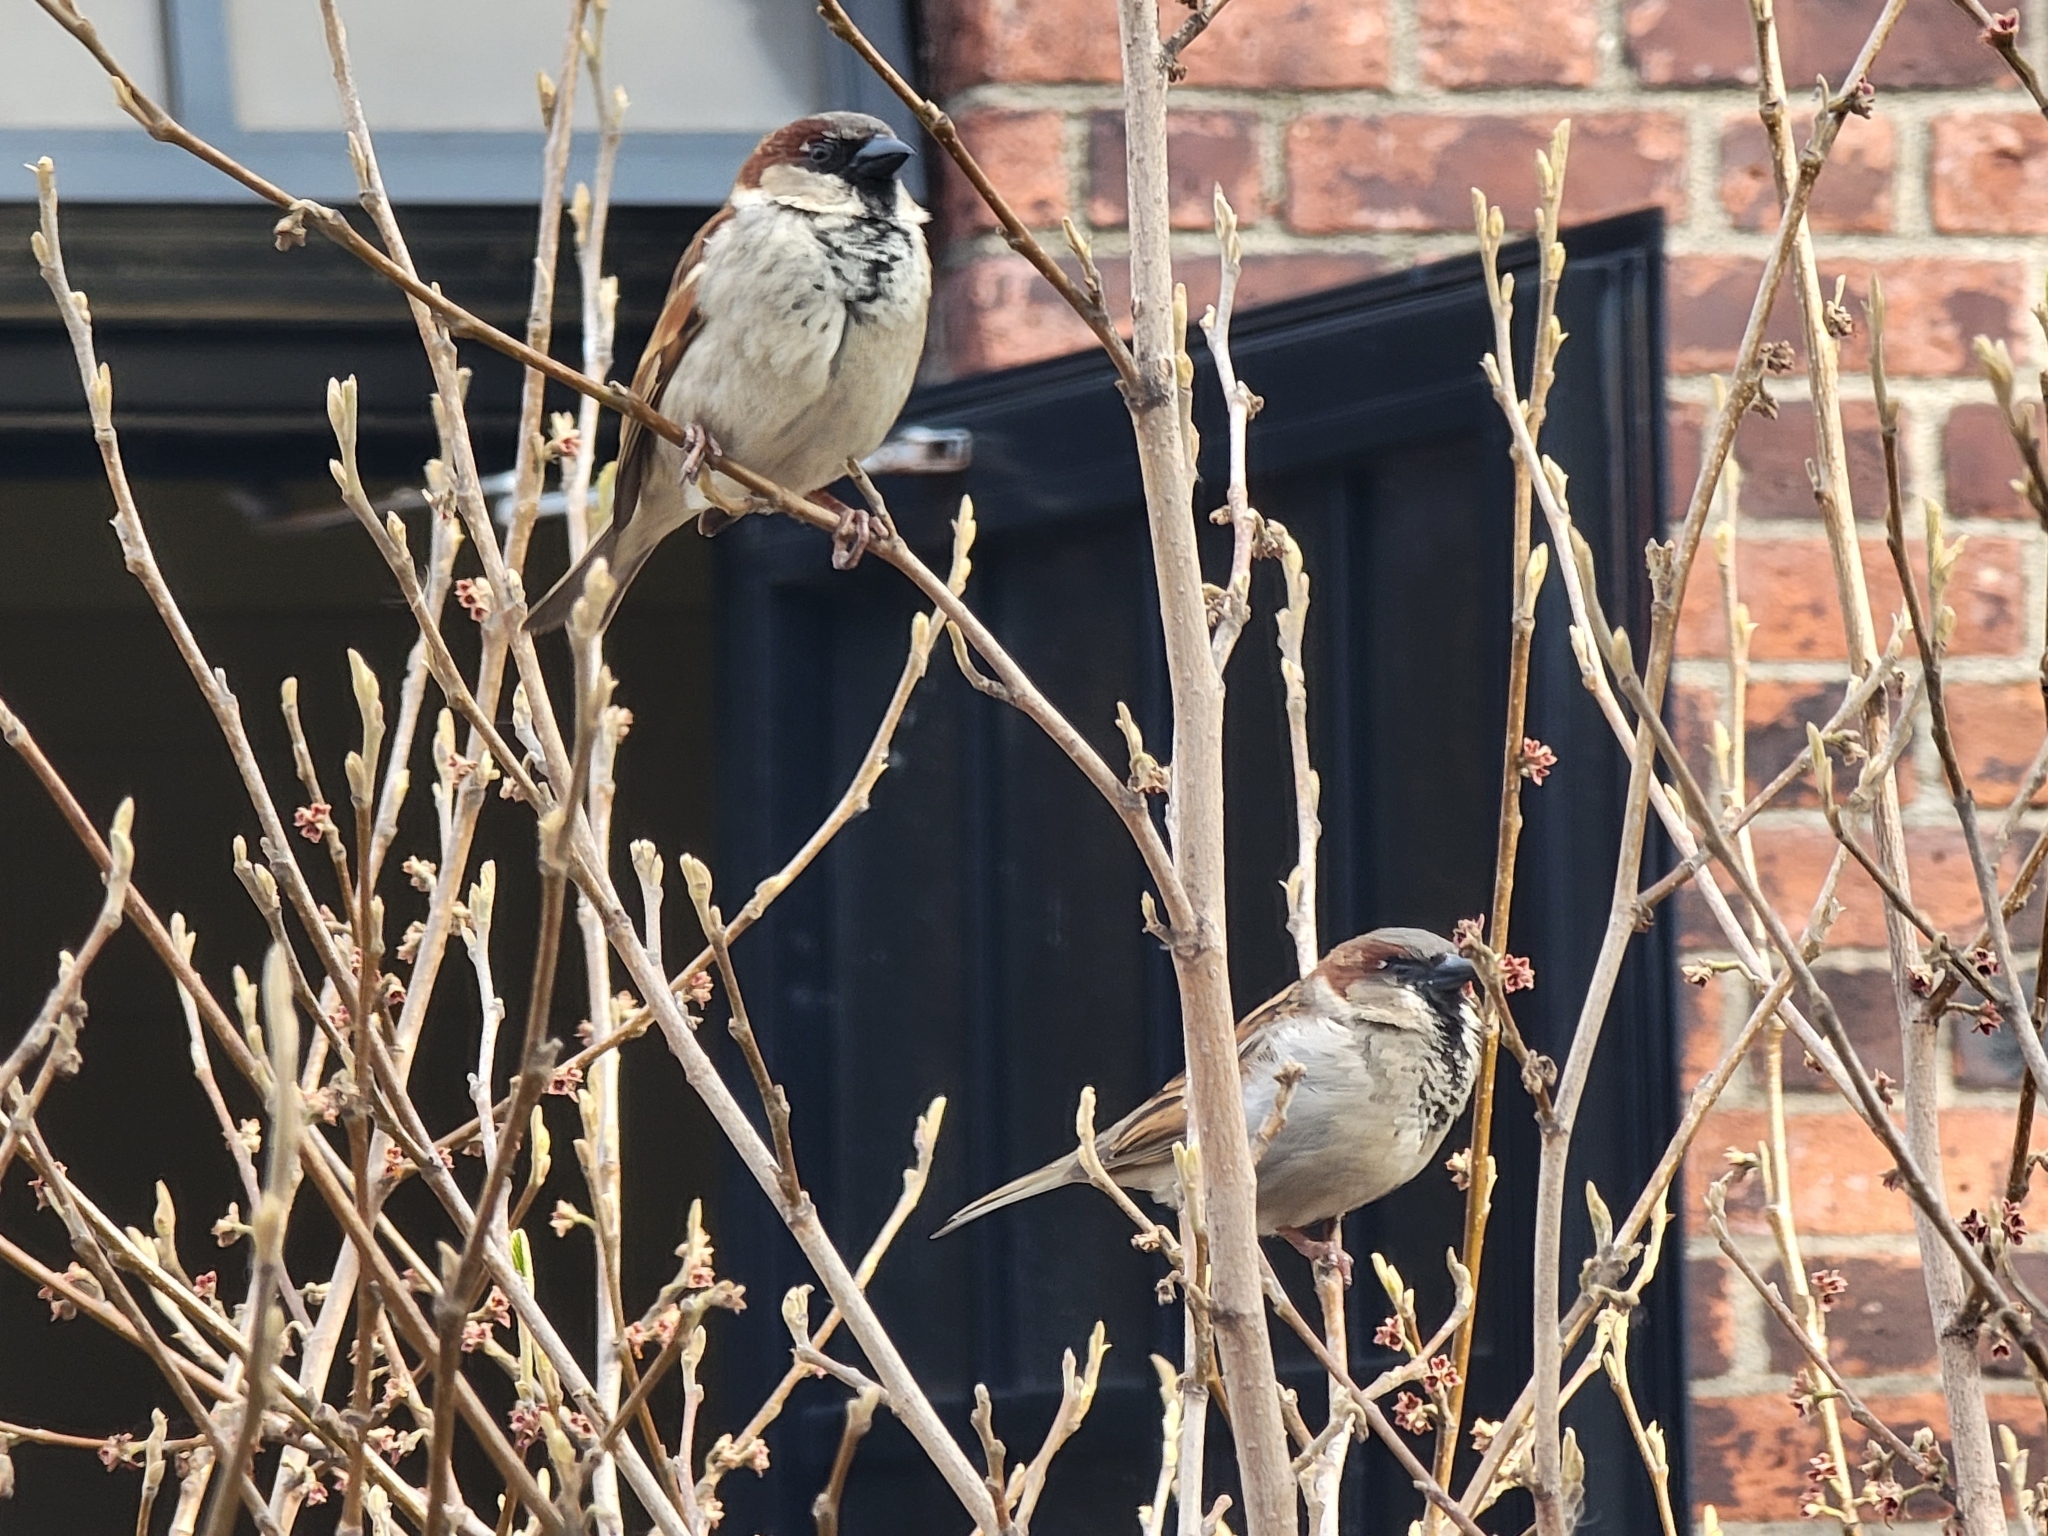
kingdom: Animalia
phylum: Chordata
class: Aves
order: Passeriformes
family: Passeridae
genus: Passer
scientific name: Passer domesticus
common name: House sparrow
